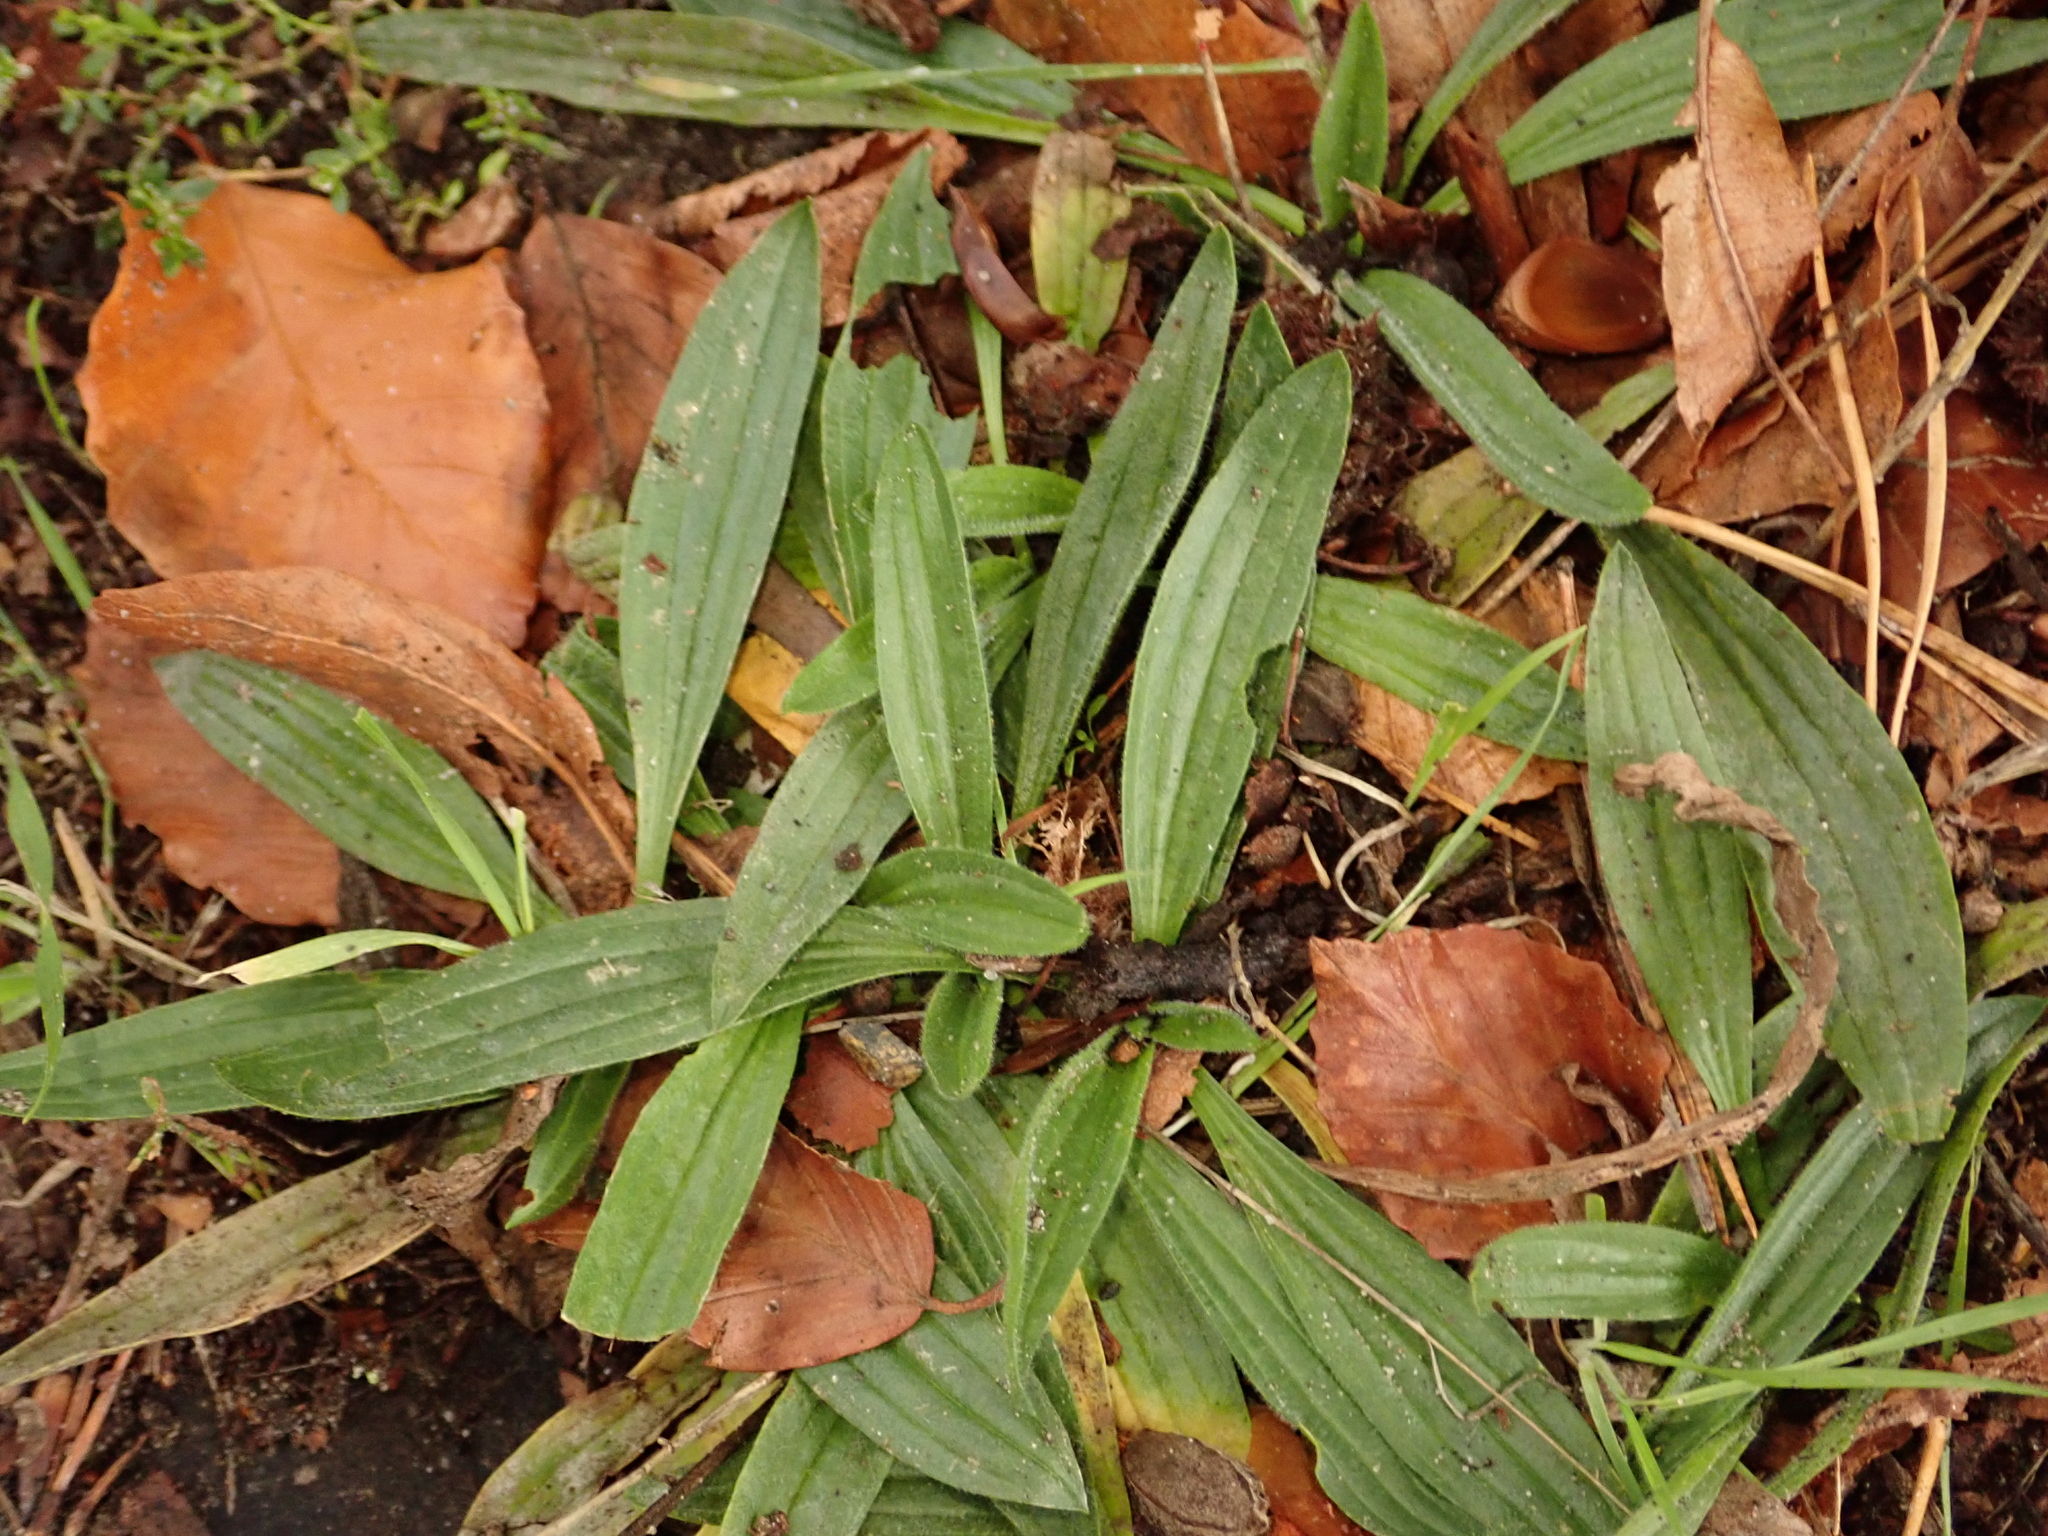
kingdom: Plantae
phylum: Tracheophyta
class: Magnoliopsida
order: Lamiales
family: Plantaginaceae
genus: Plantago
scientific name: Plantago lanceolata
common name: Ribwort plantain
